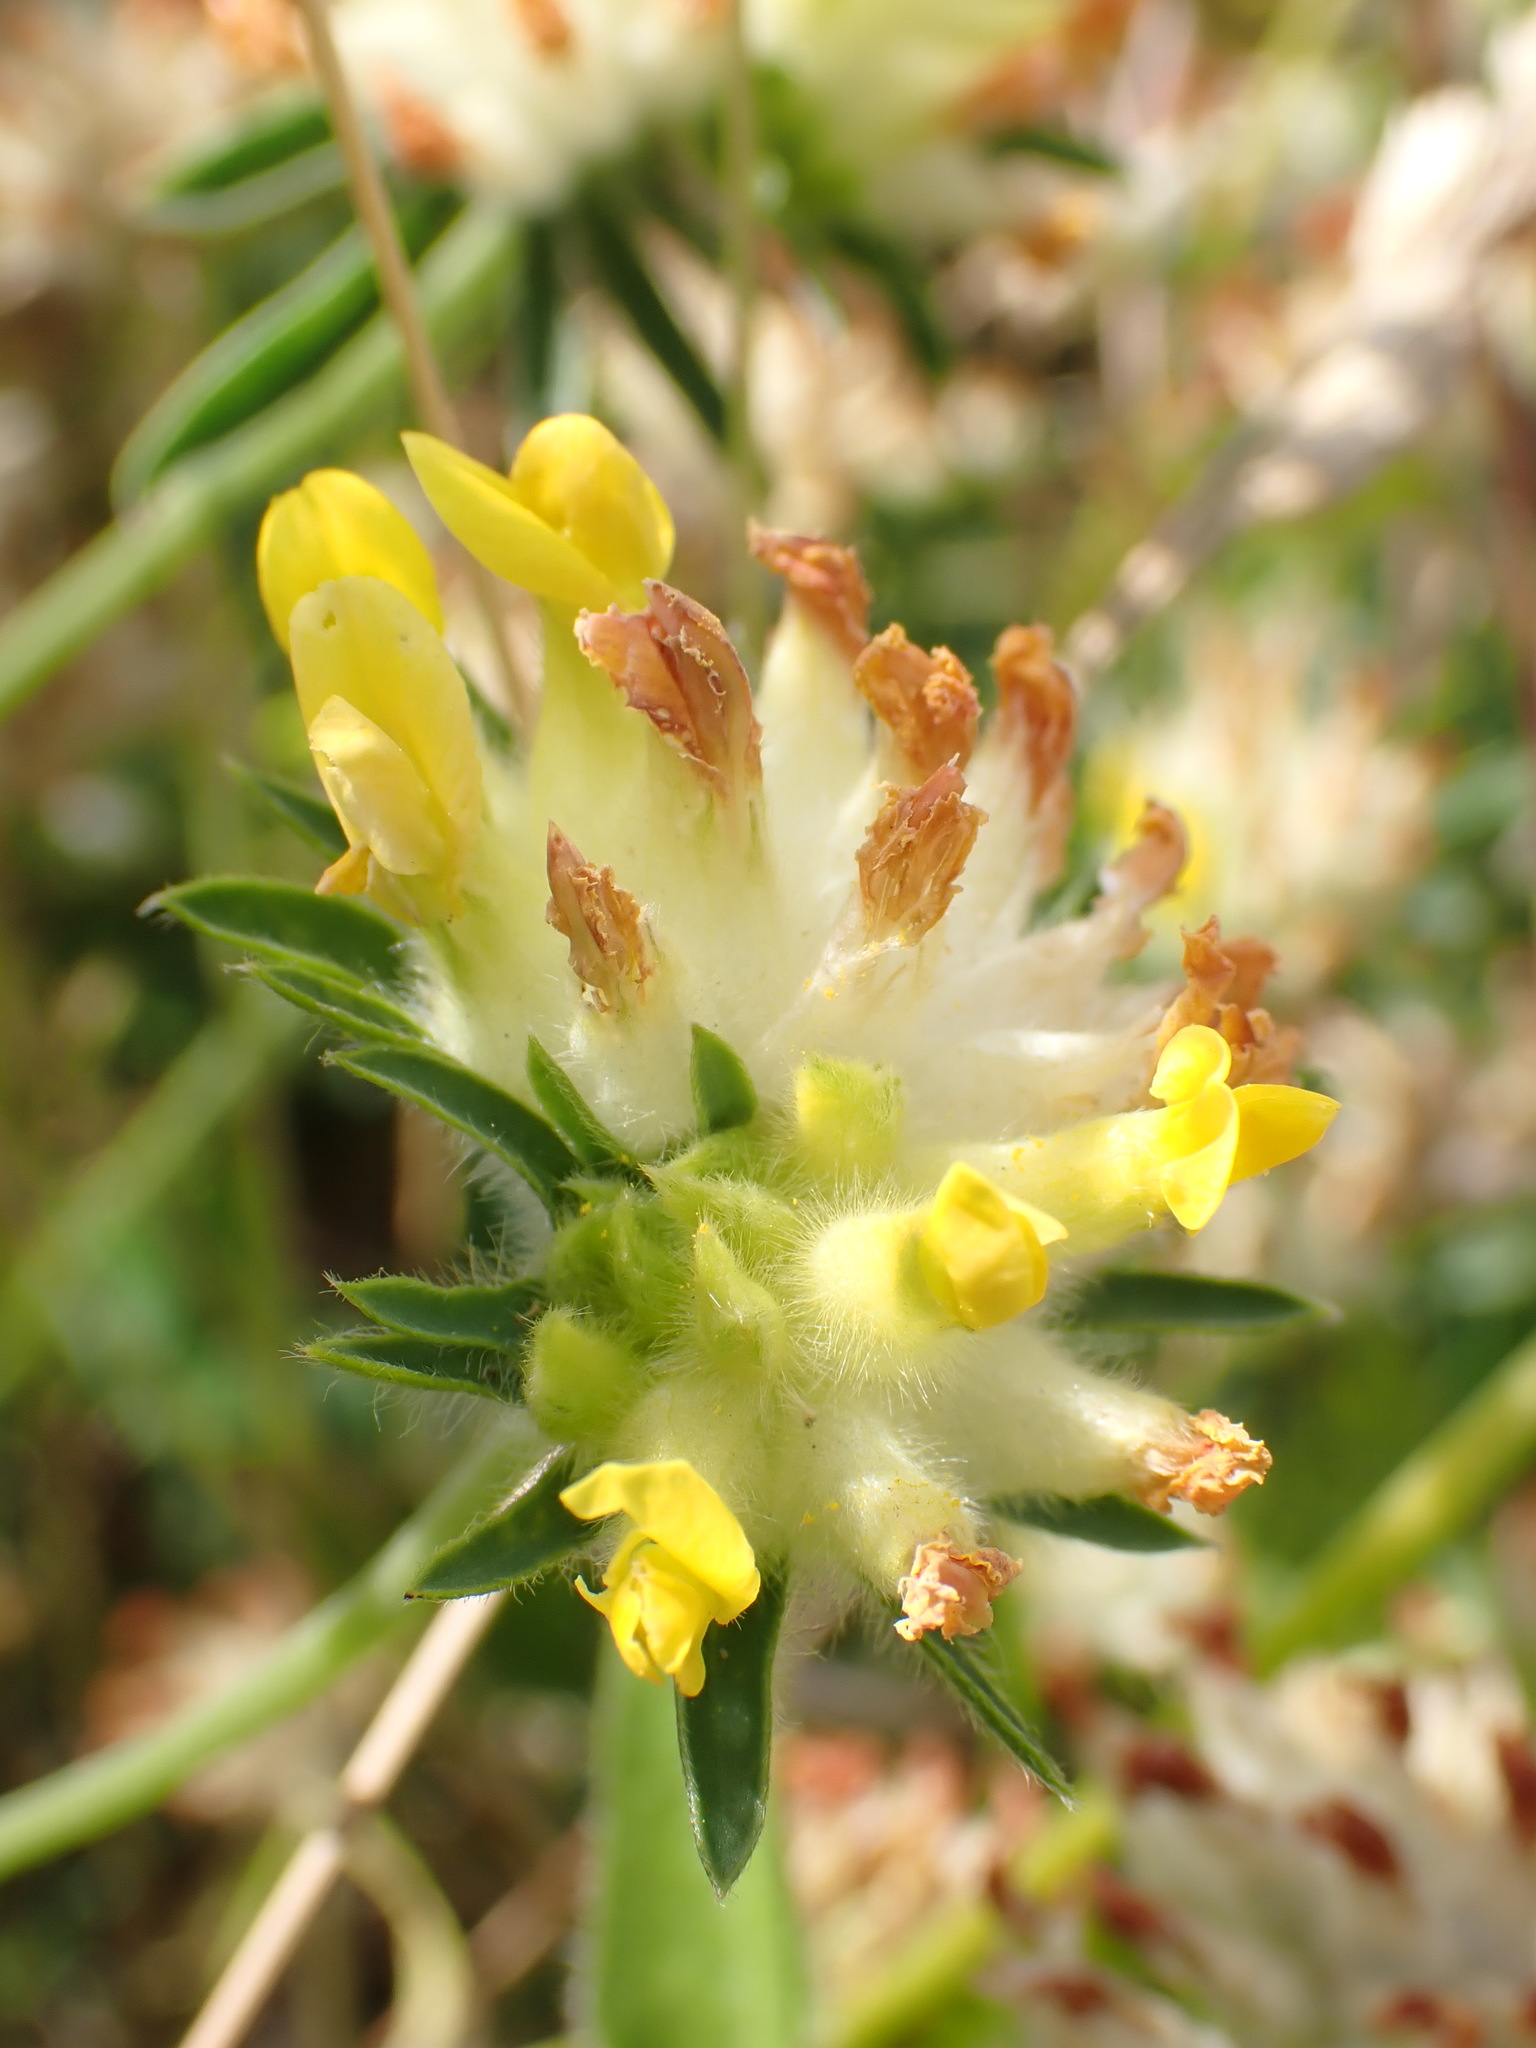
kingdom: Plantae
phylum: Tracheophyta
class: Magnoliopsida
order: Fabales
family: Fabaceae
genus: Anthyllis
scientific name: Anthyllis vulneraria
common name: Kidney vetch
